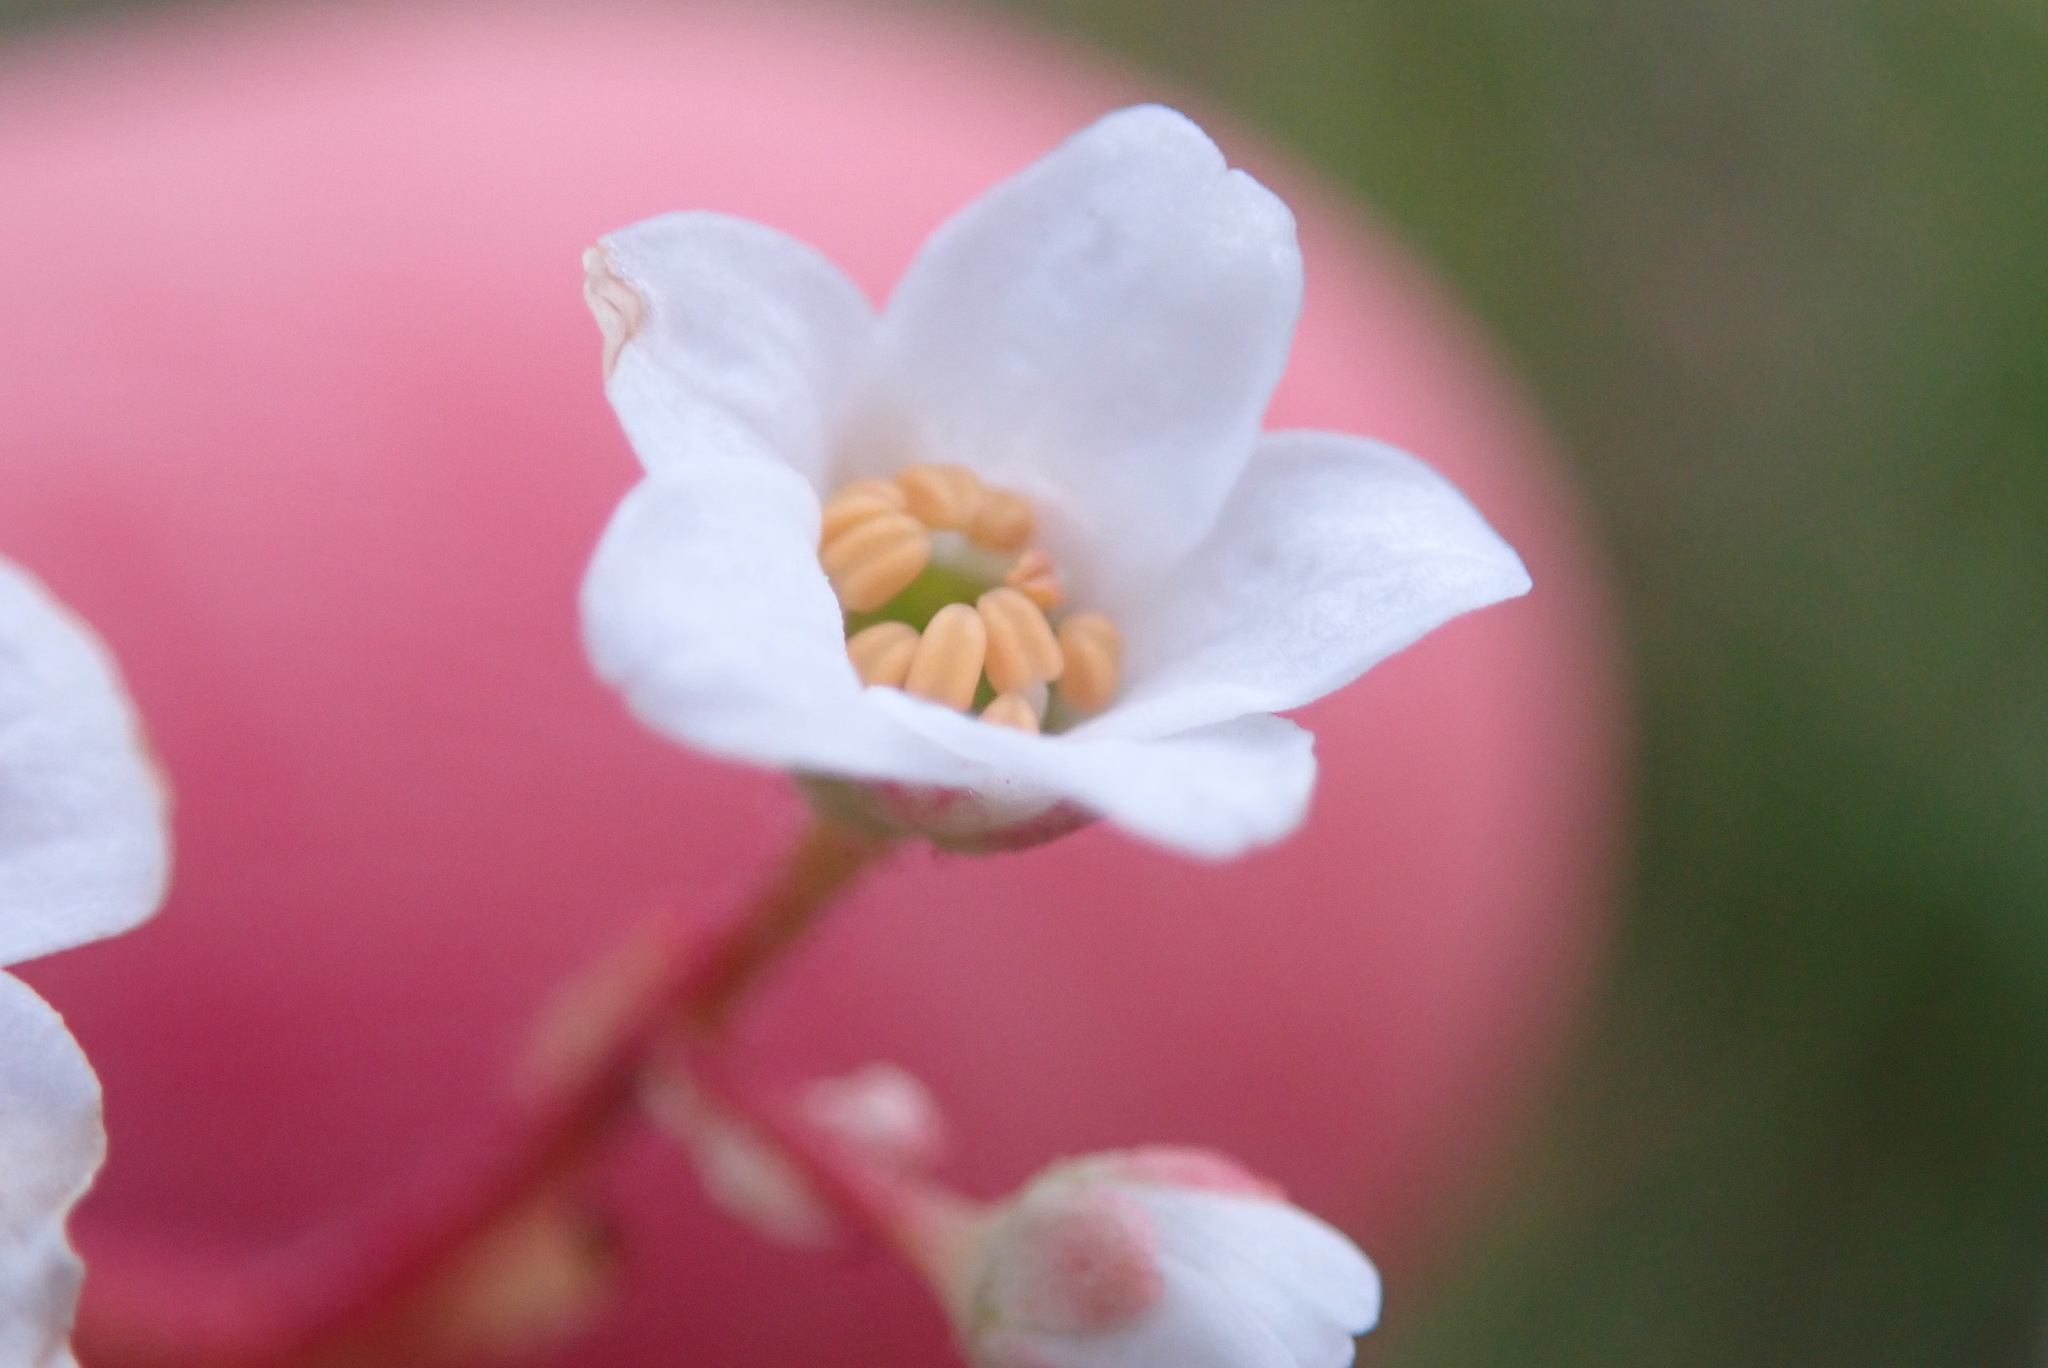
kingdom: Plantae
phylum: Tracheophyta
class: Magnoliopsida
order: Saxifragales
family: Saxifragaceae
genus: Micranthes
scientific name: Micranthes californica
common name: California saxifrage
